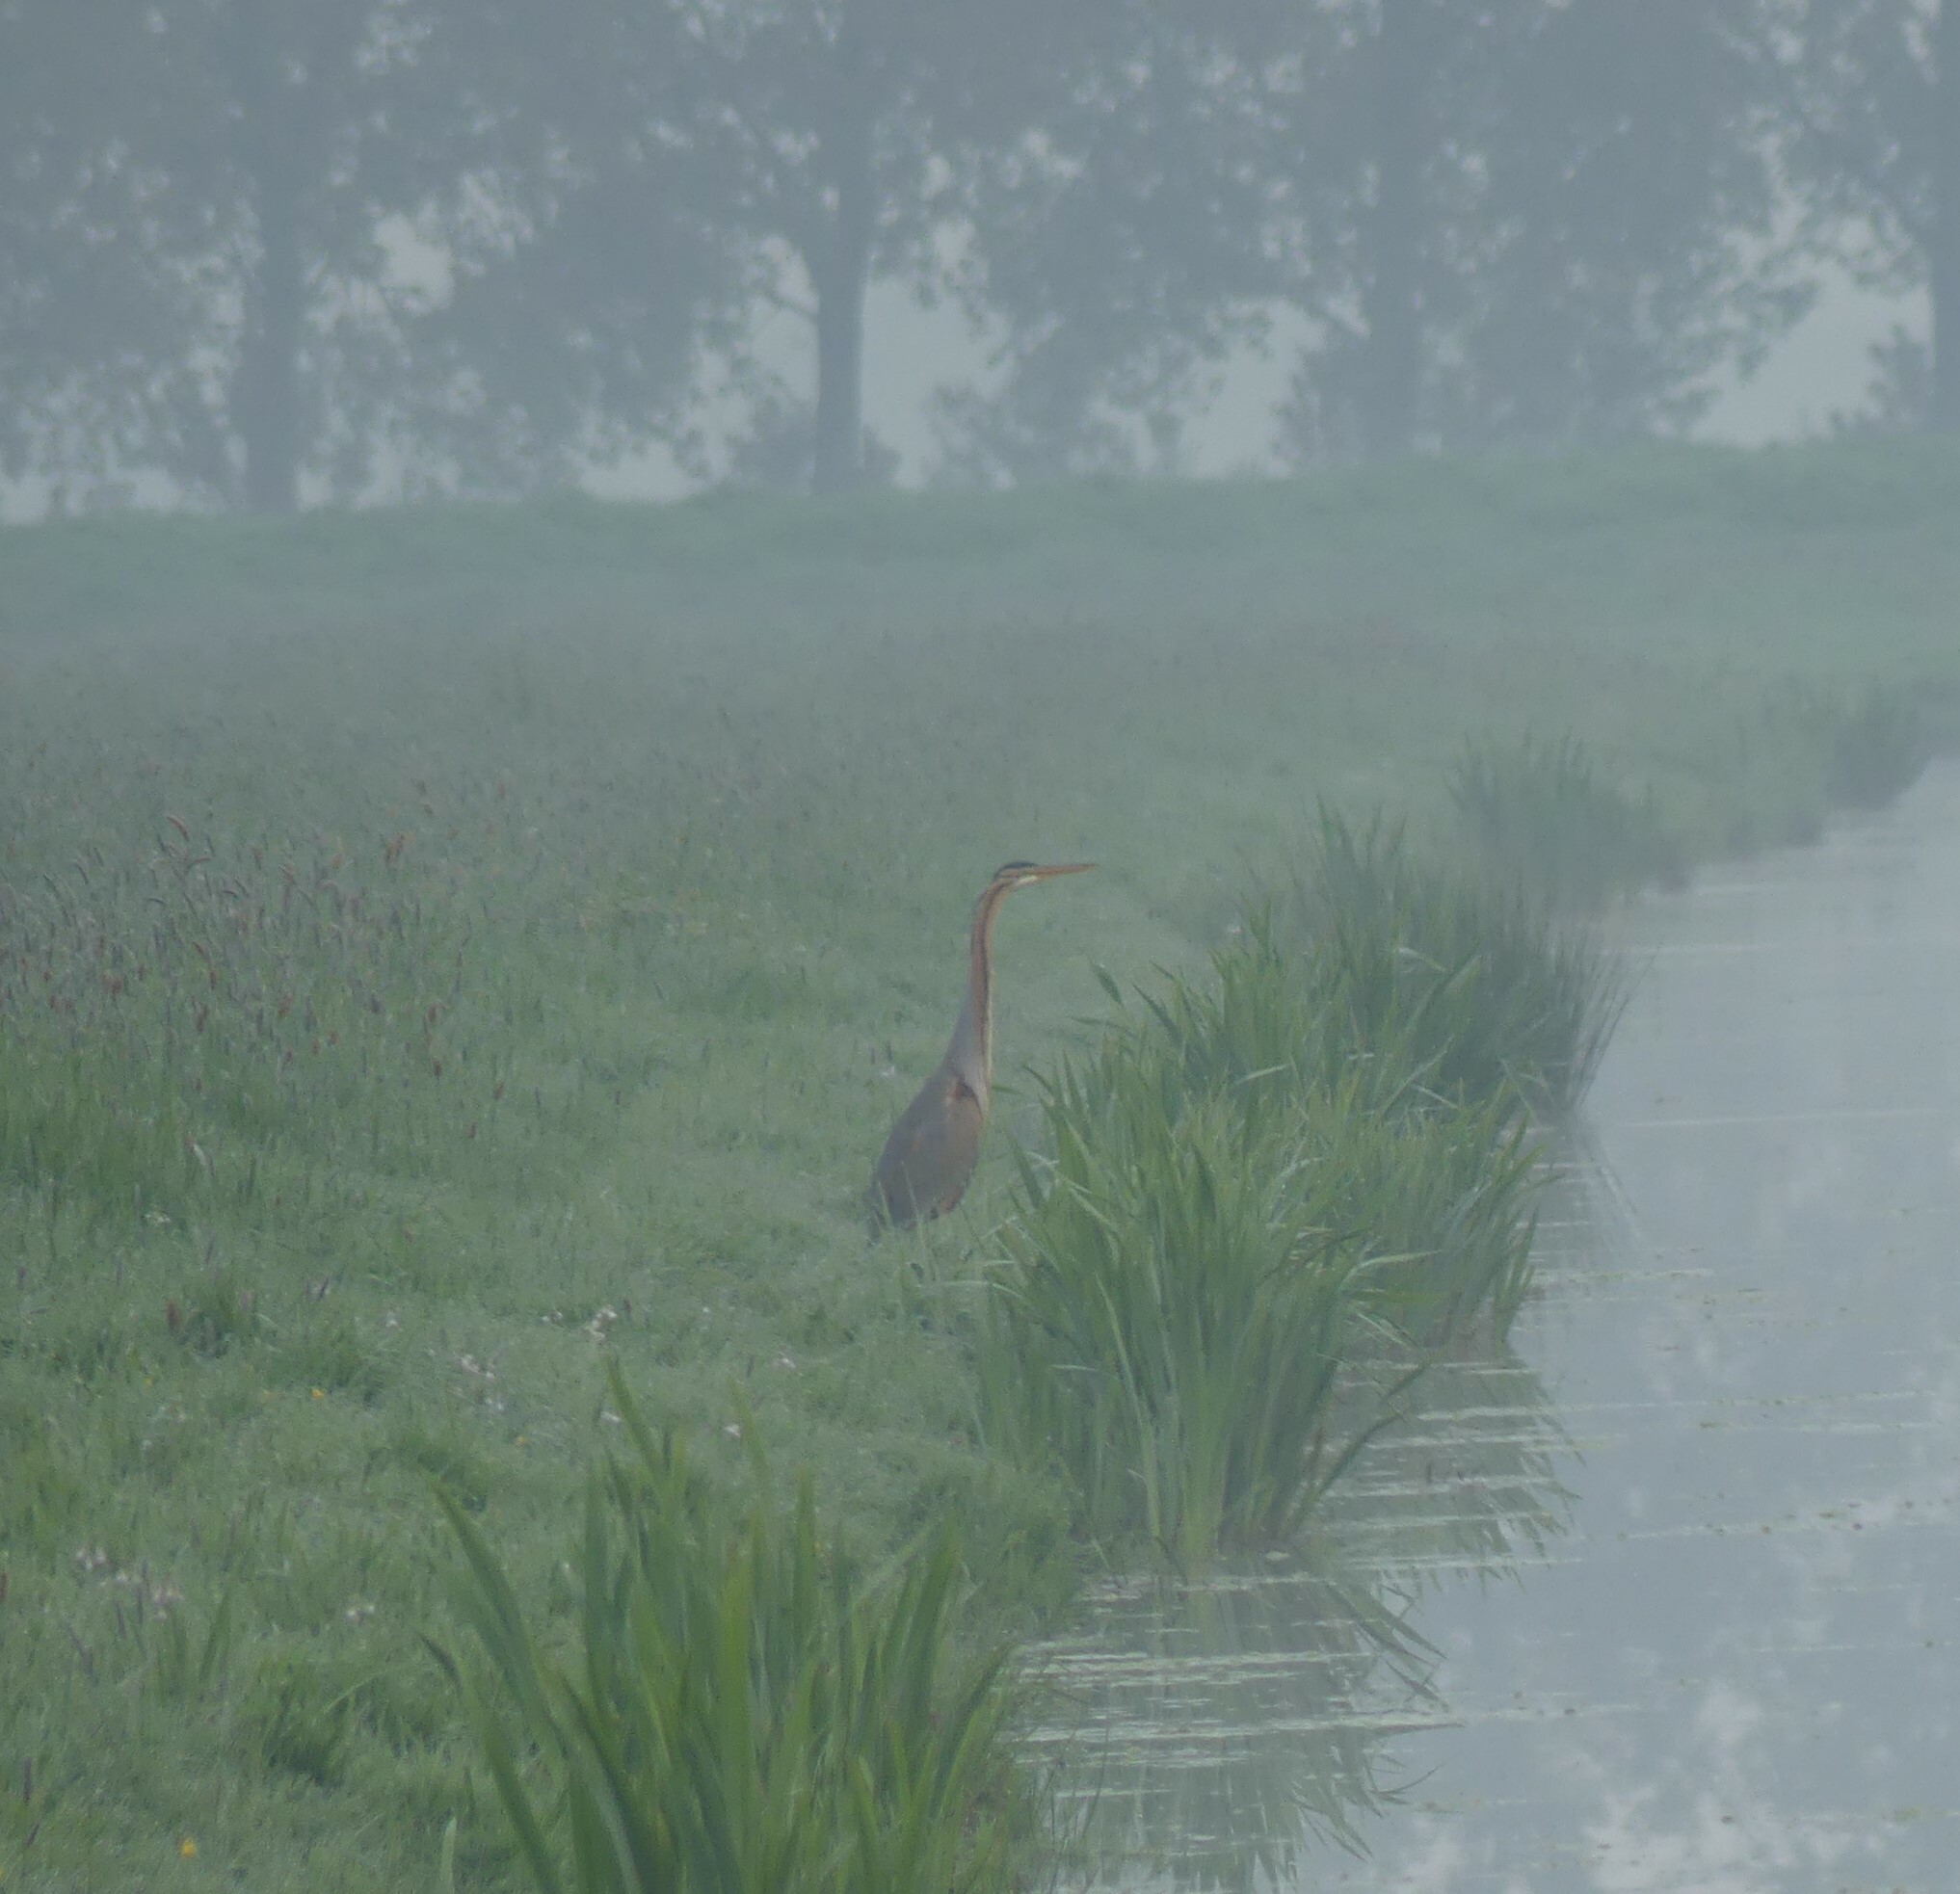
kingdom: Animalia
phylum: Chordata
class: Aves
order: Pelecaniformes
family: Ardeidae
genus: Ardea
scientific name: Ardea purpurea
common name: Purple heron
